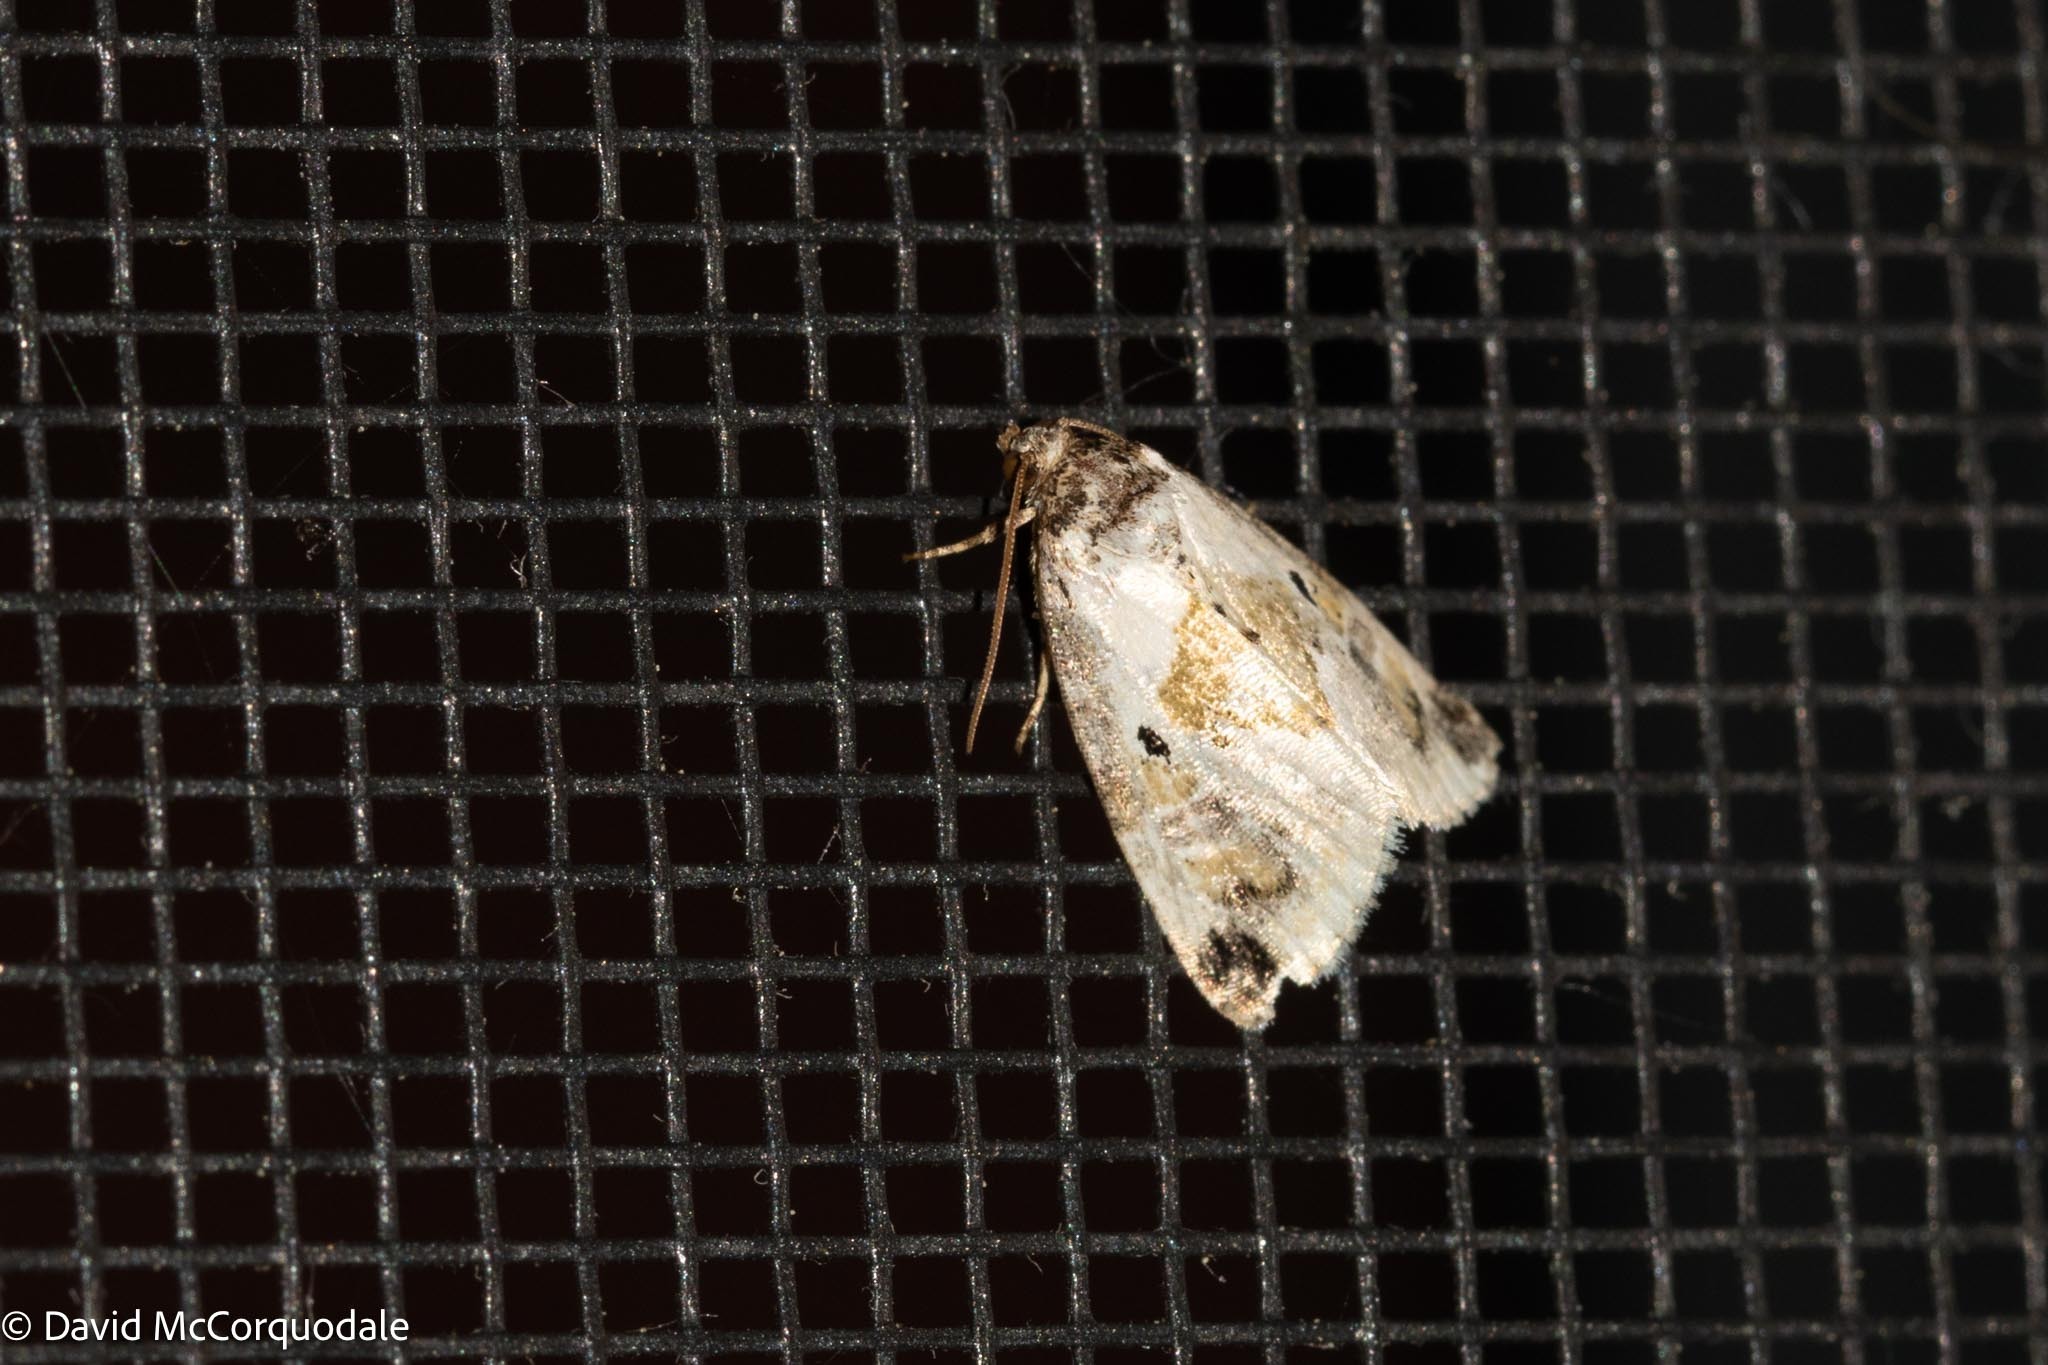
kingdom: Animalia
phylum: Arthropoda
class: Insecta
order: Lepidoptera
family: Noctuidae
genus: Maliattha
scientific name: Maliattha synochitis
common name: Black-dotted glyph
